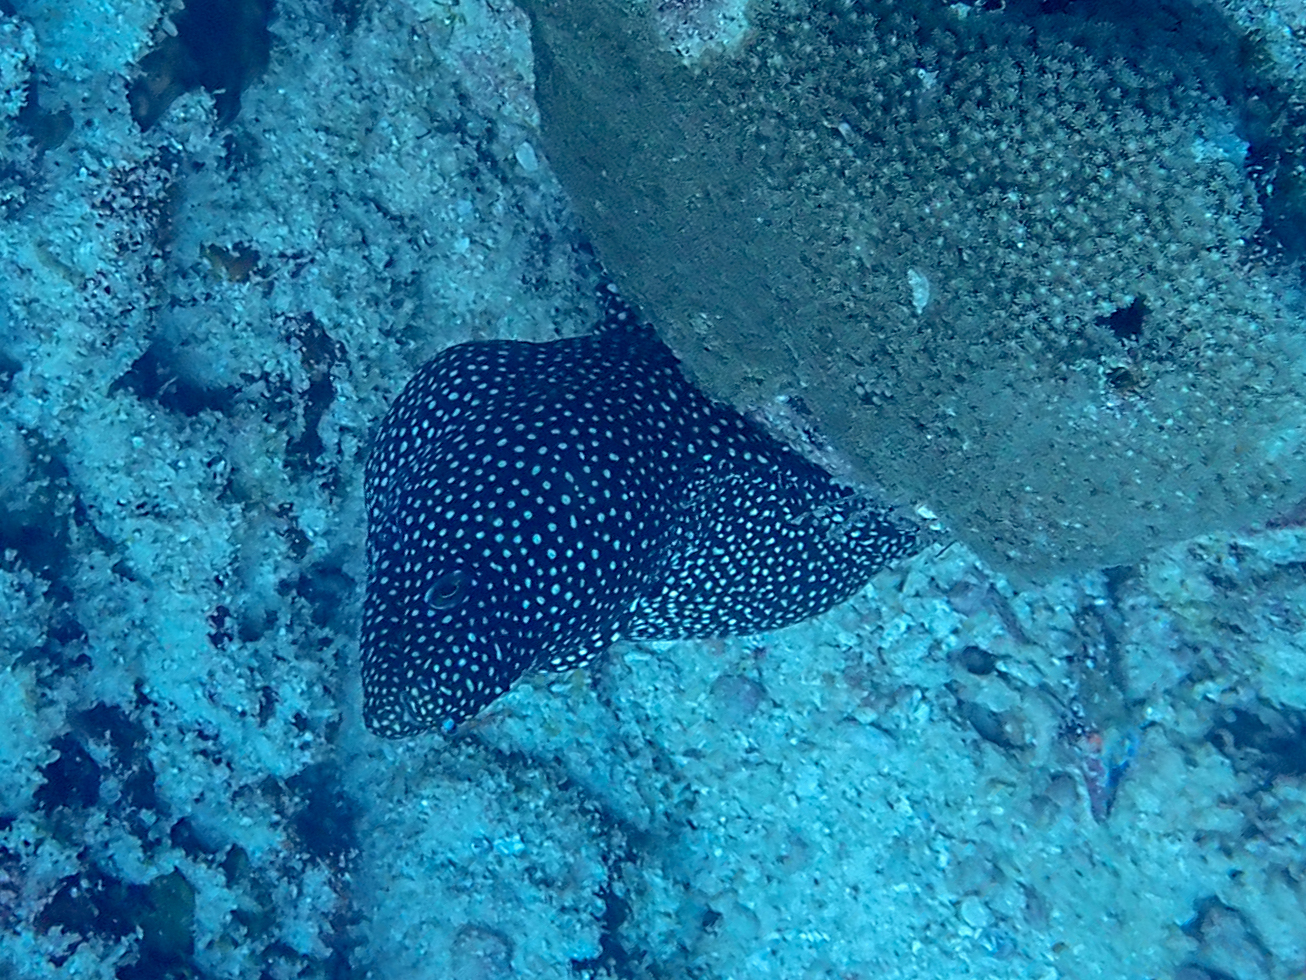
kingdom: Animalia
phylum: Chordata
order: Anguilliformes
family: Muraenidae
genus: Gymnothorax
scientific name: Gymnothorax meleagris
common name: Guineafowl moray
